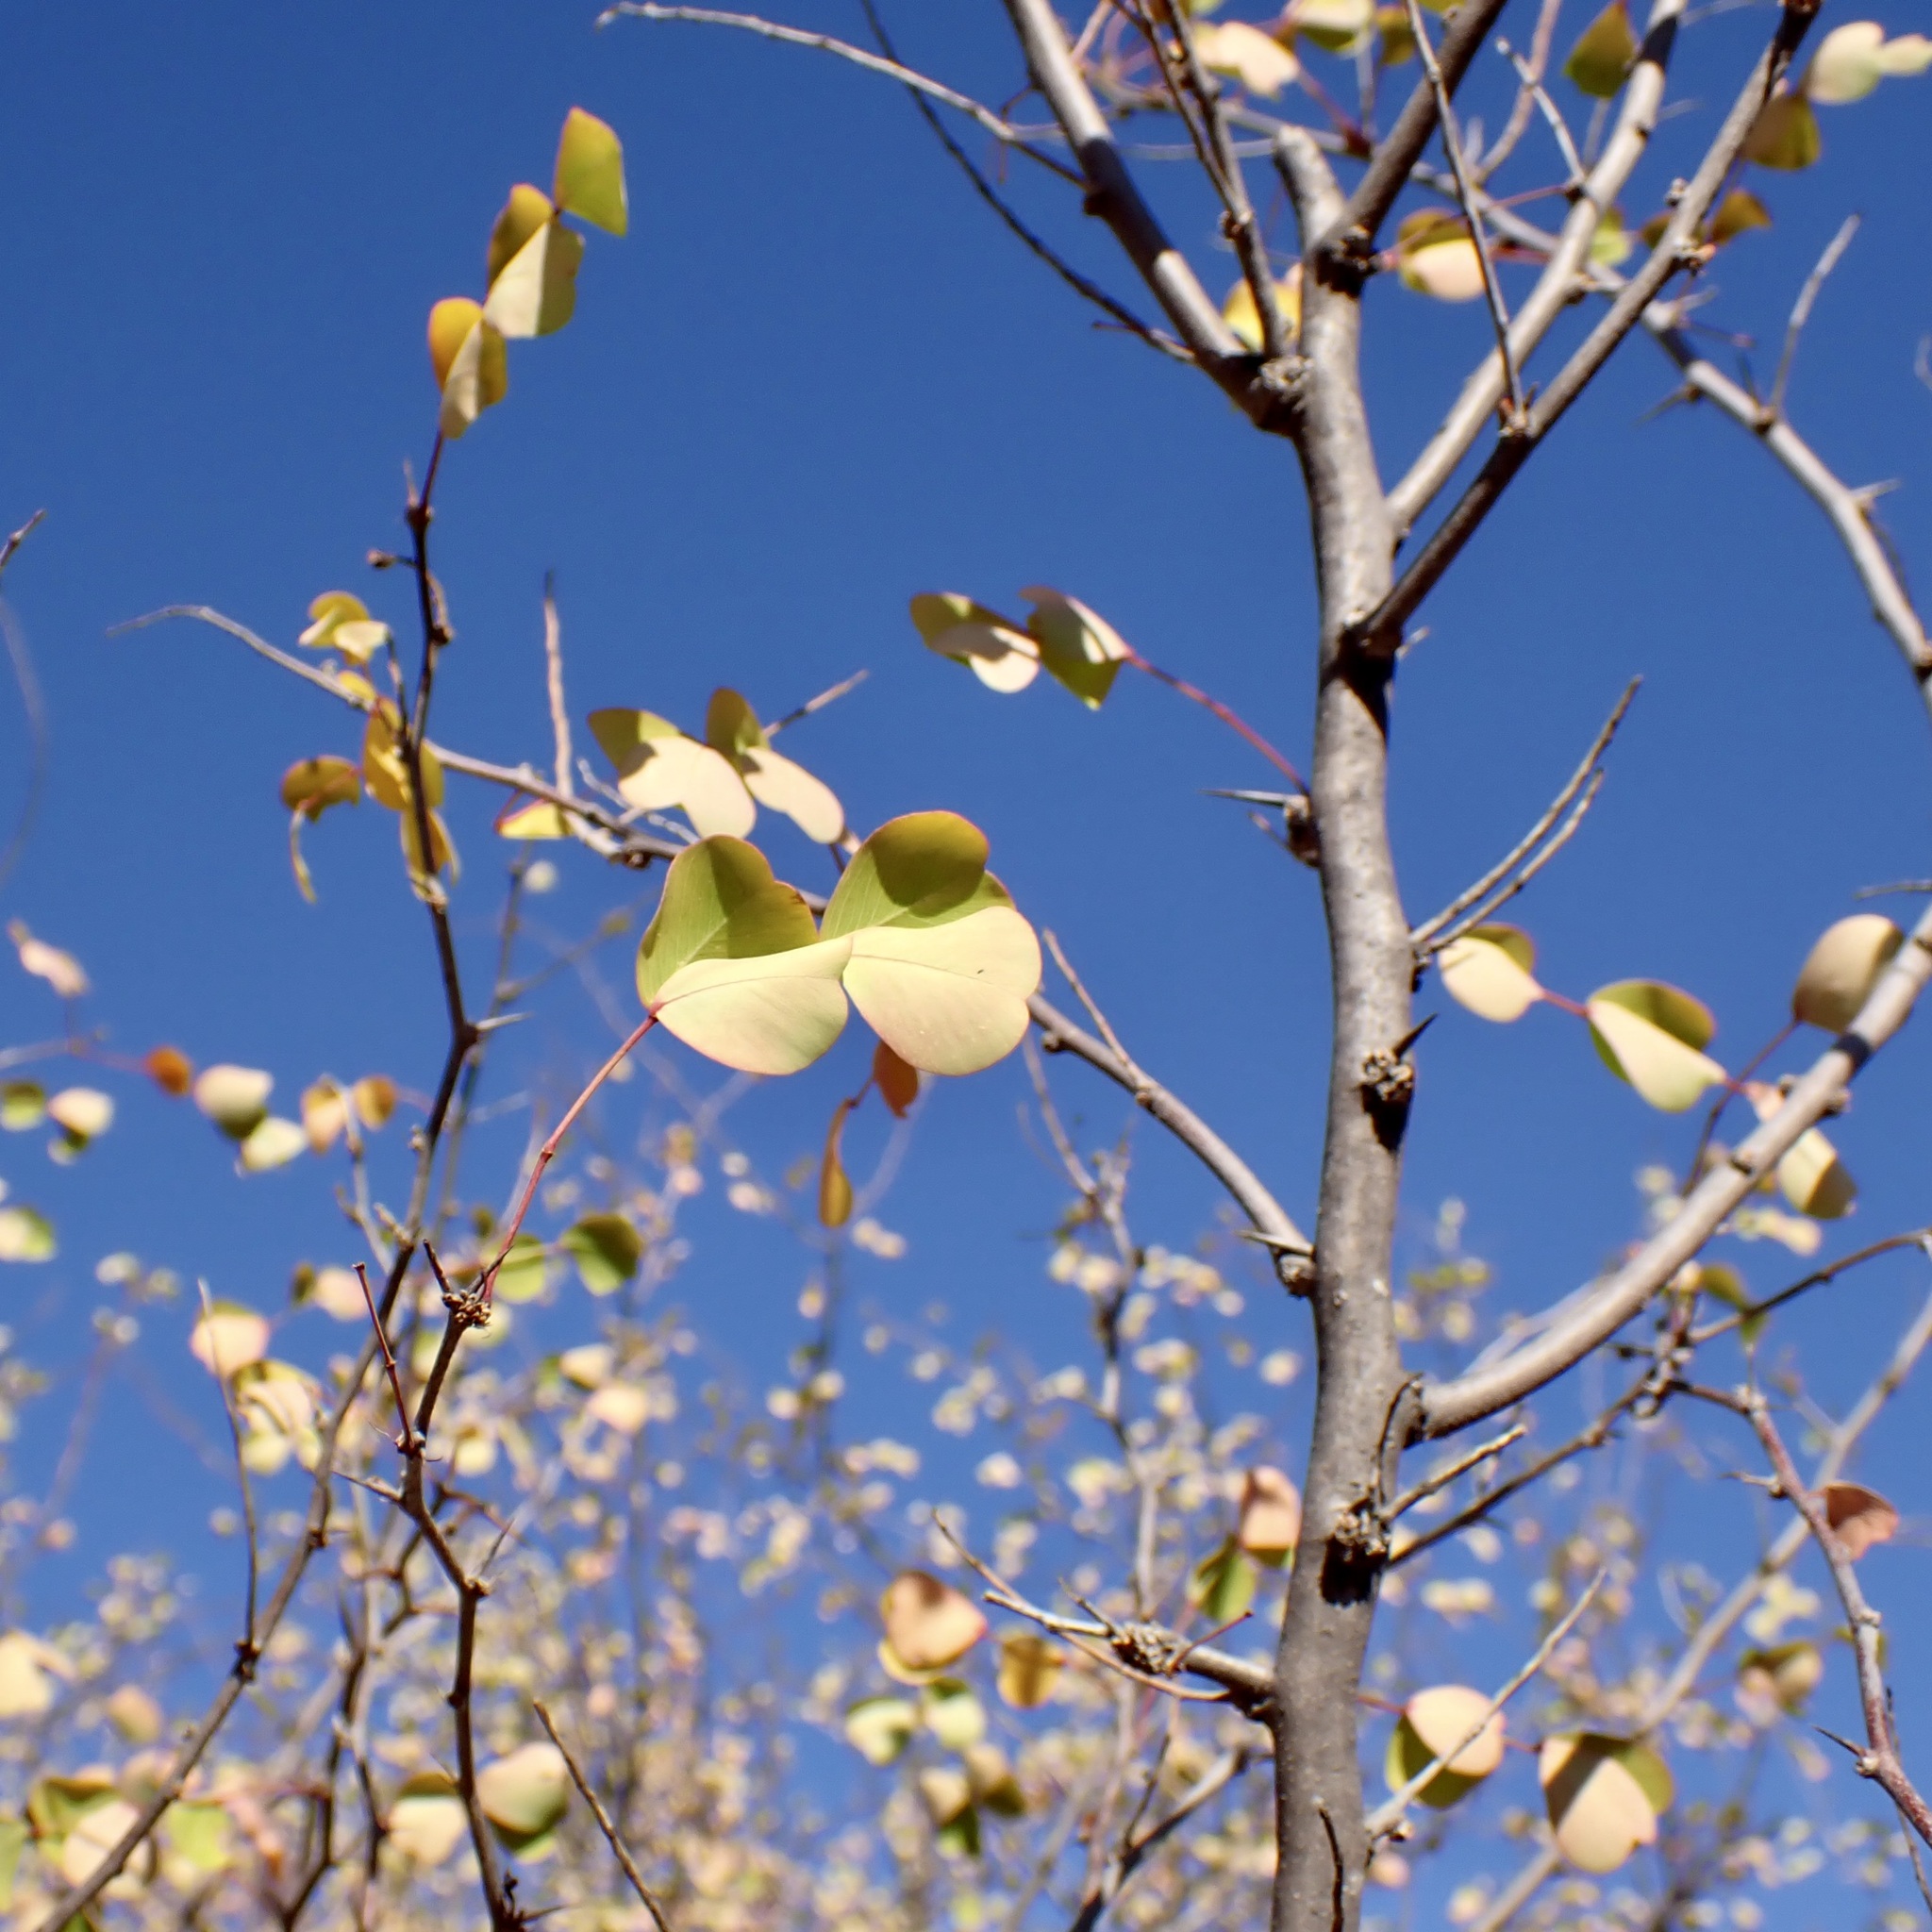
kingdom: Plantae
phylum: Tracheophyta
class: Magnoliopsida
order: Fabales
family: Fabaceae
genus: Haematoxylum
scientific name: Haematoxylum brasiletto
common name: Peachwood
